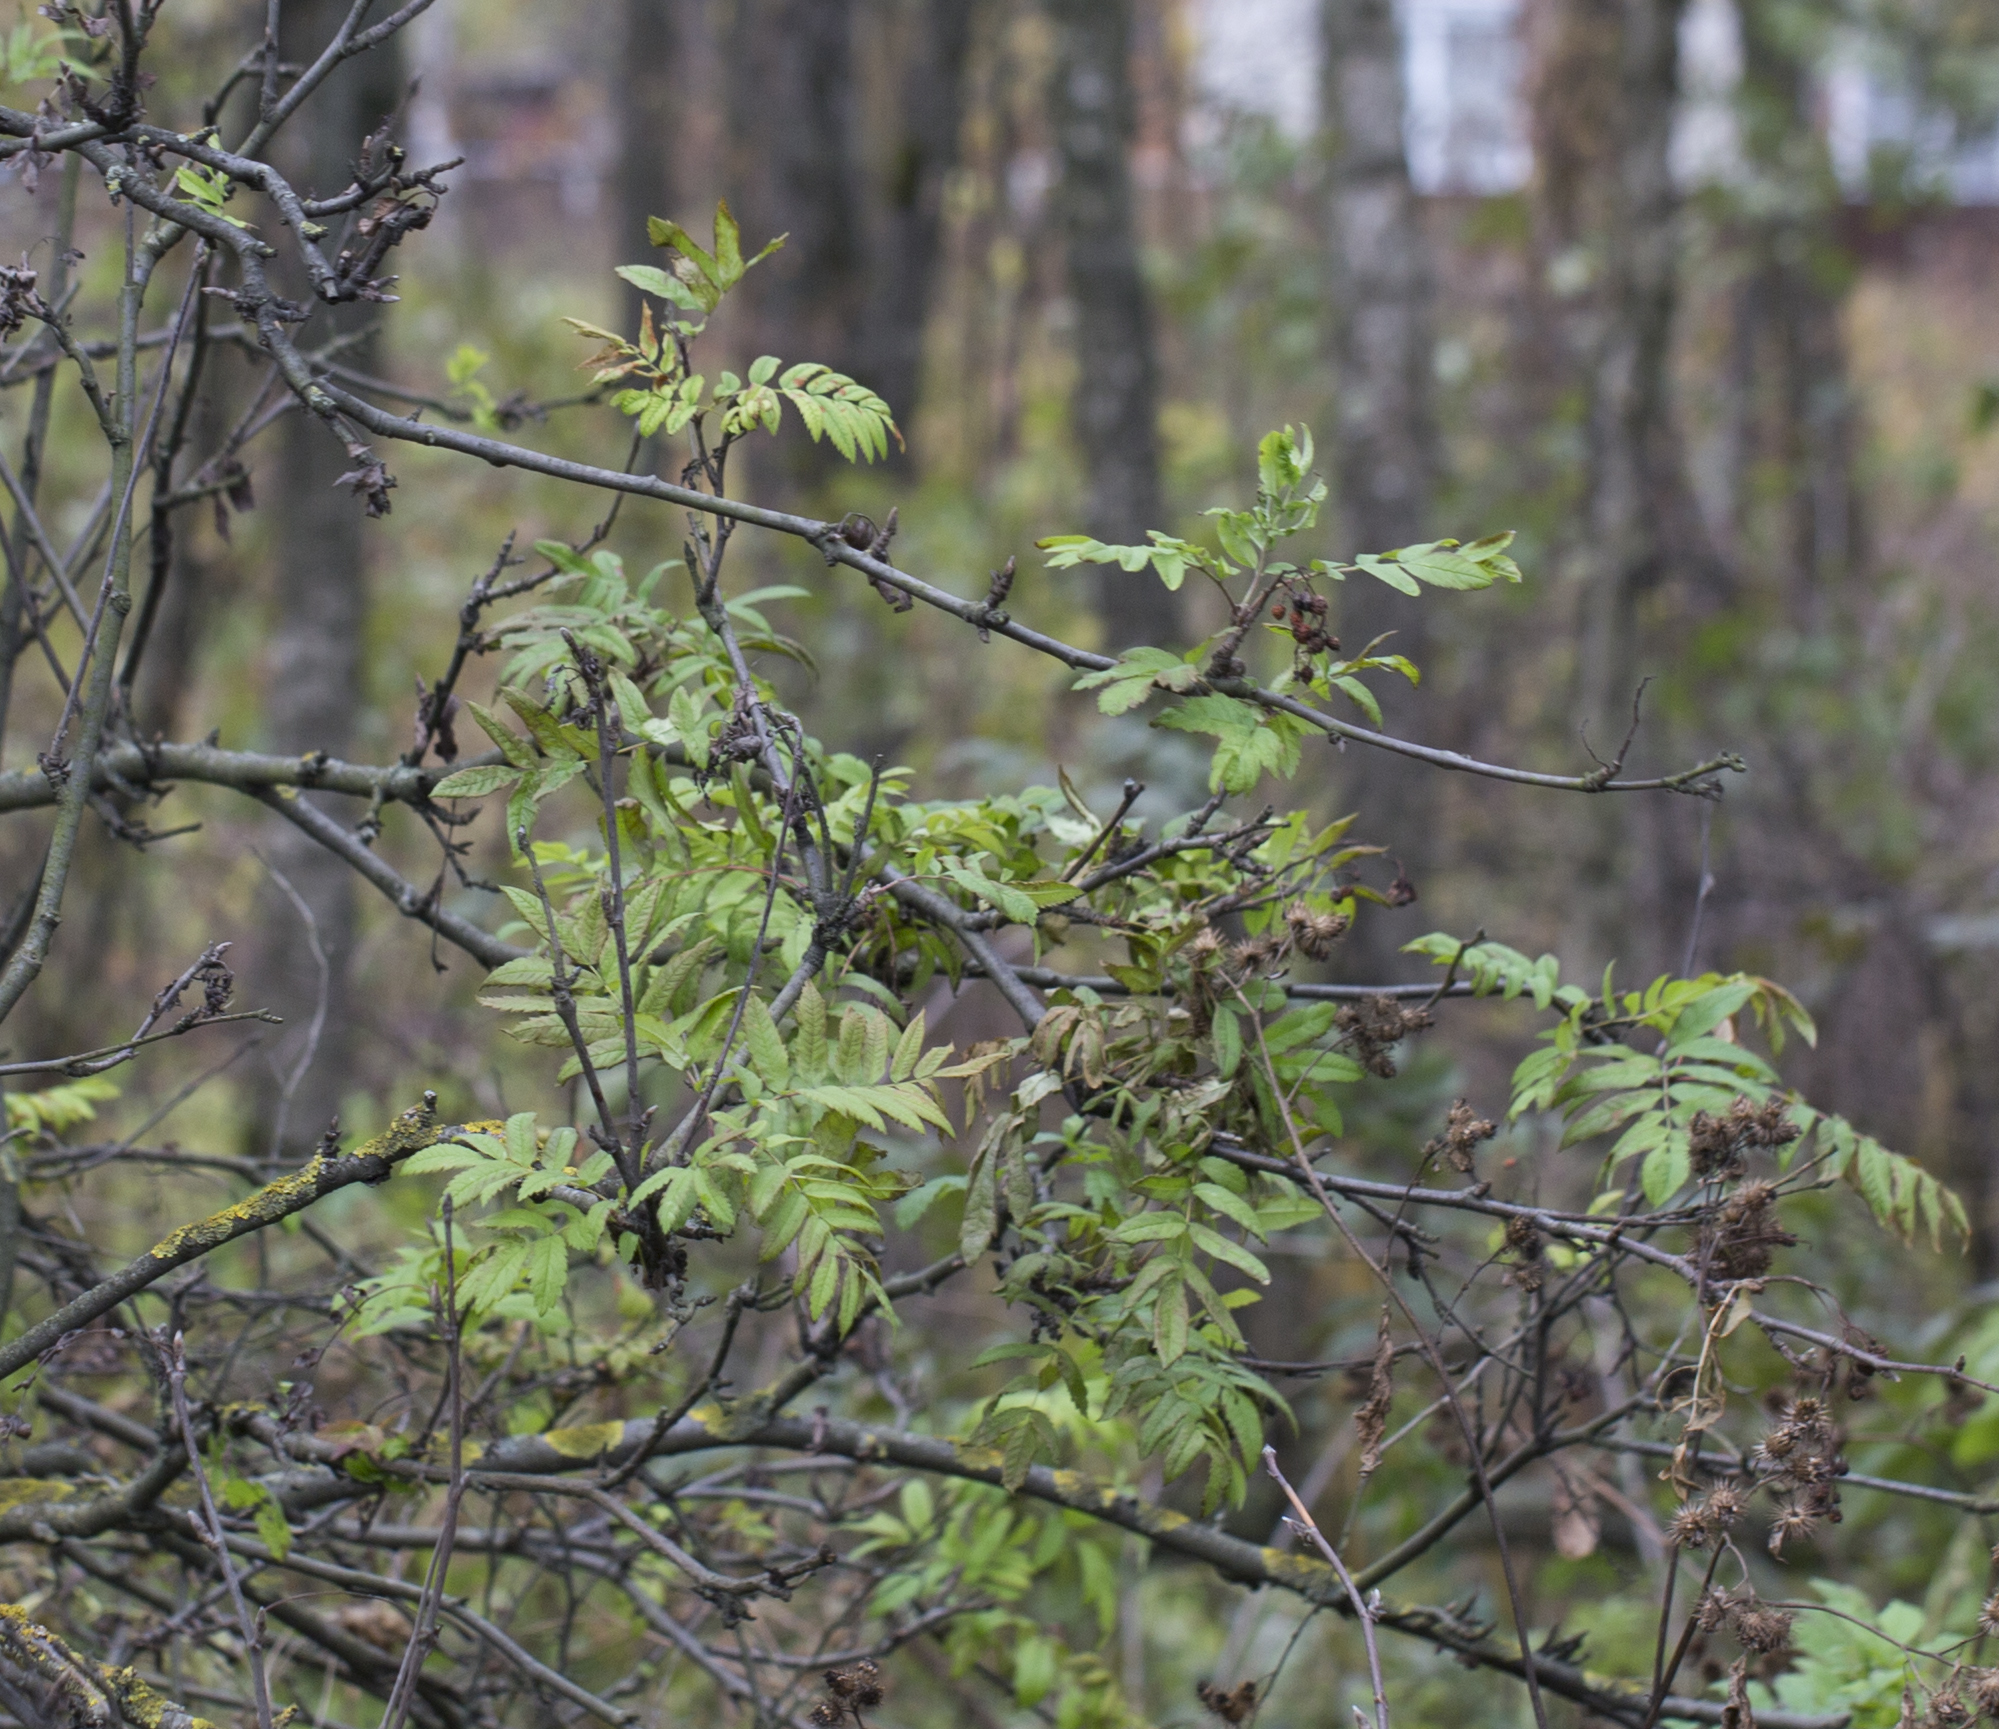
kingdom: Plantae
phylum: Tracheophyta
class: Magnoliopsida
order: Rosales
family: Rosaceae
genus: Sorbus
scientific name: Sorbus aucuparia
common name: Rowan
